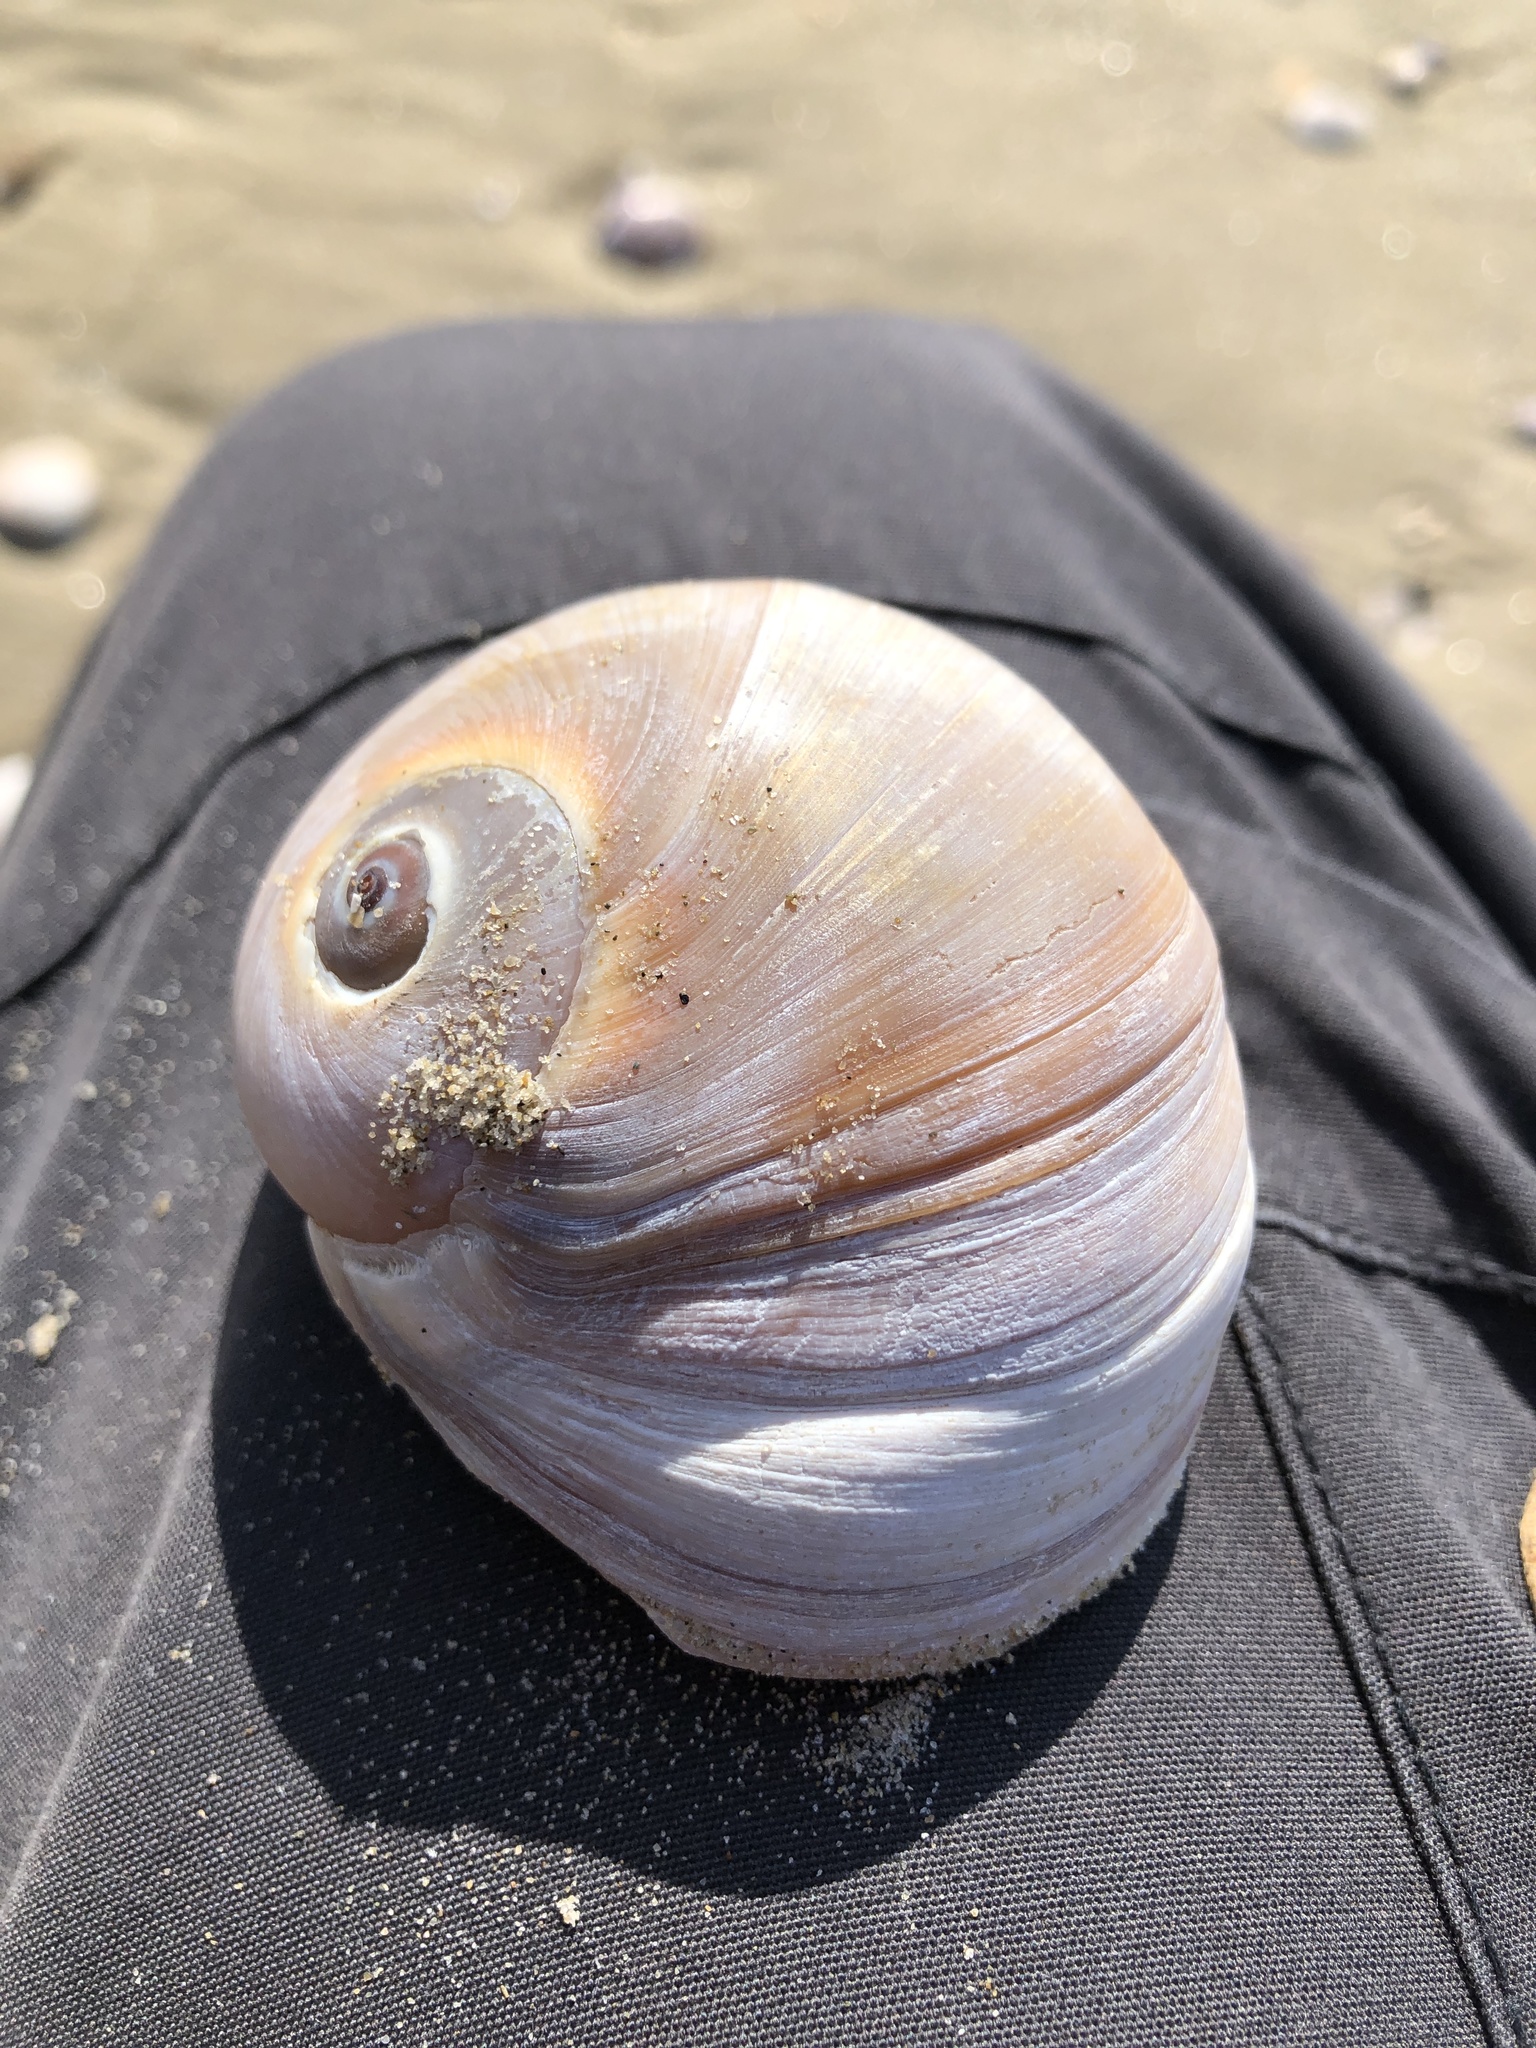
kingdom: Animalia
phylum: Mollusca
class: Gastropoda
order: Littorinimorpha
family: Naticidae
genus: Neverita
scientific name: Neverita didyma
